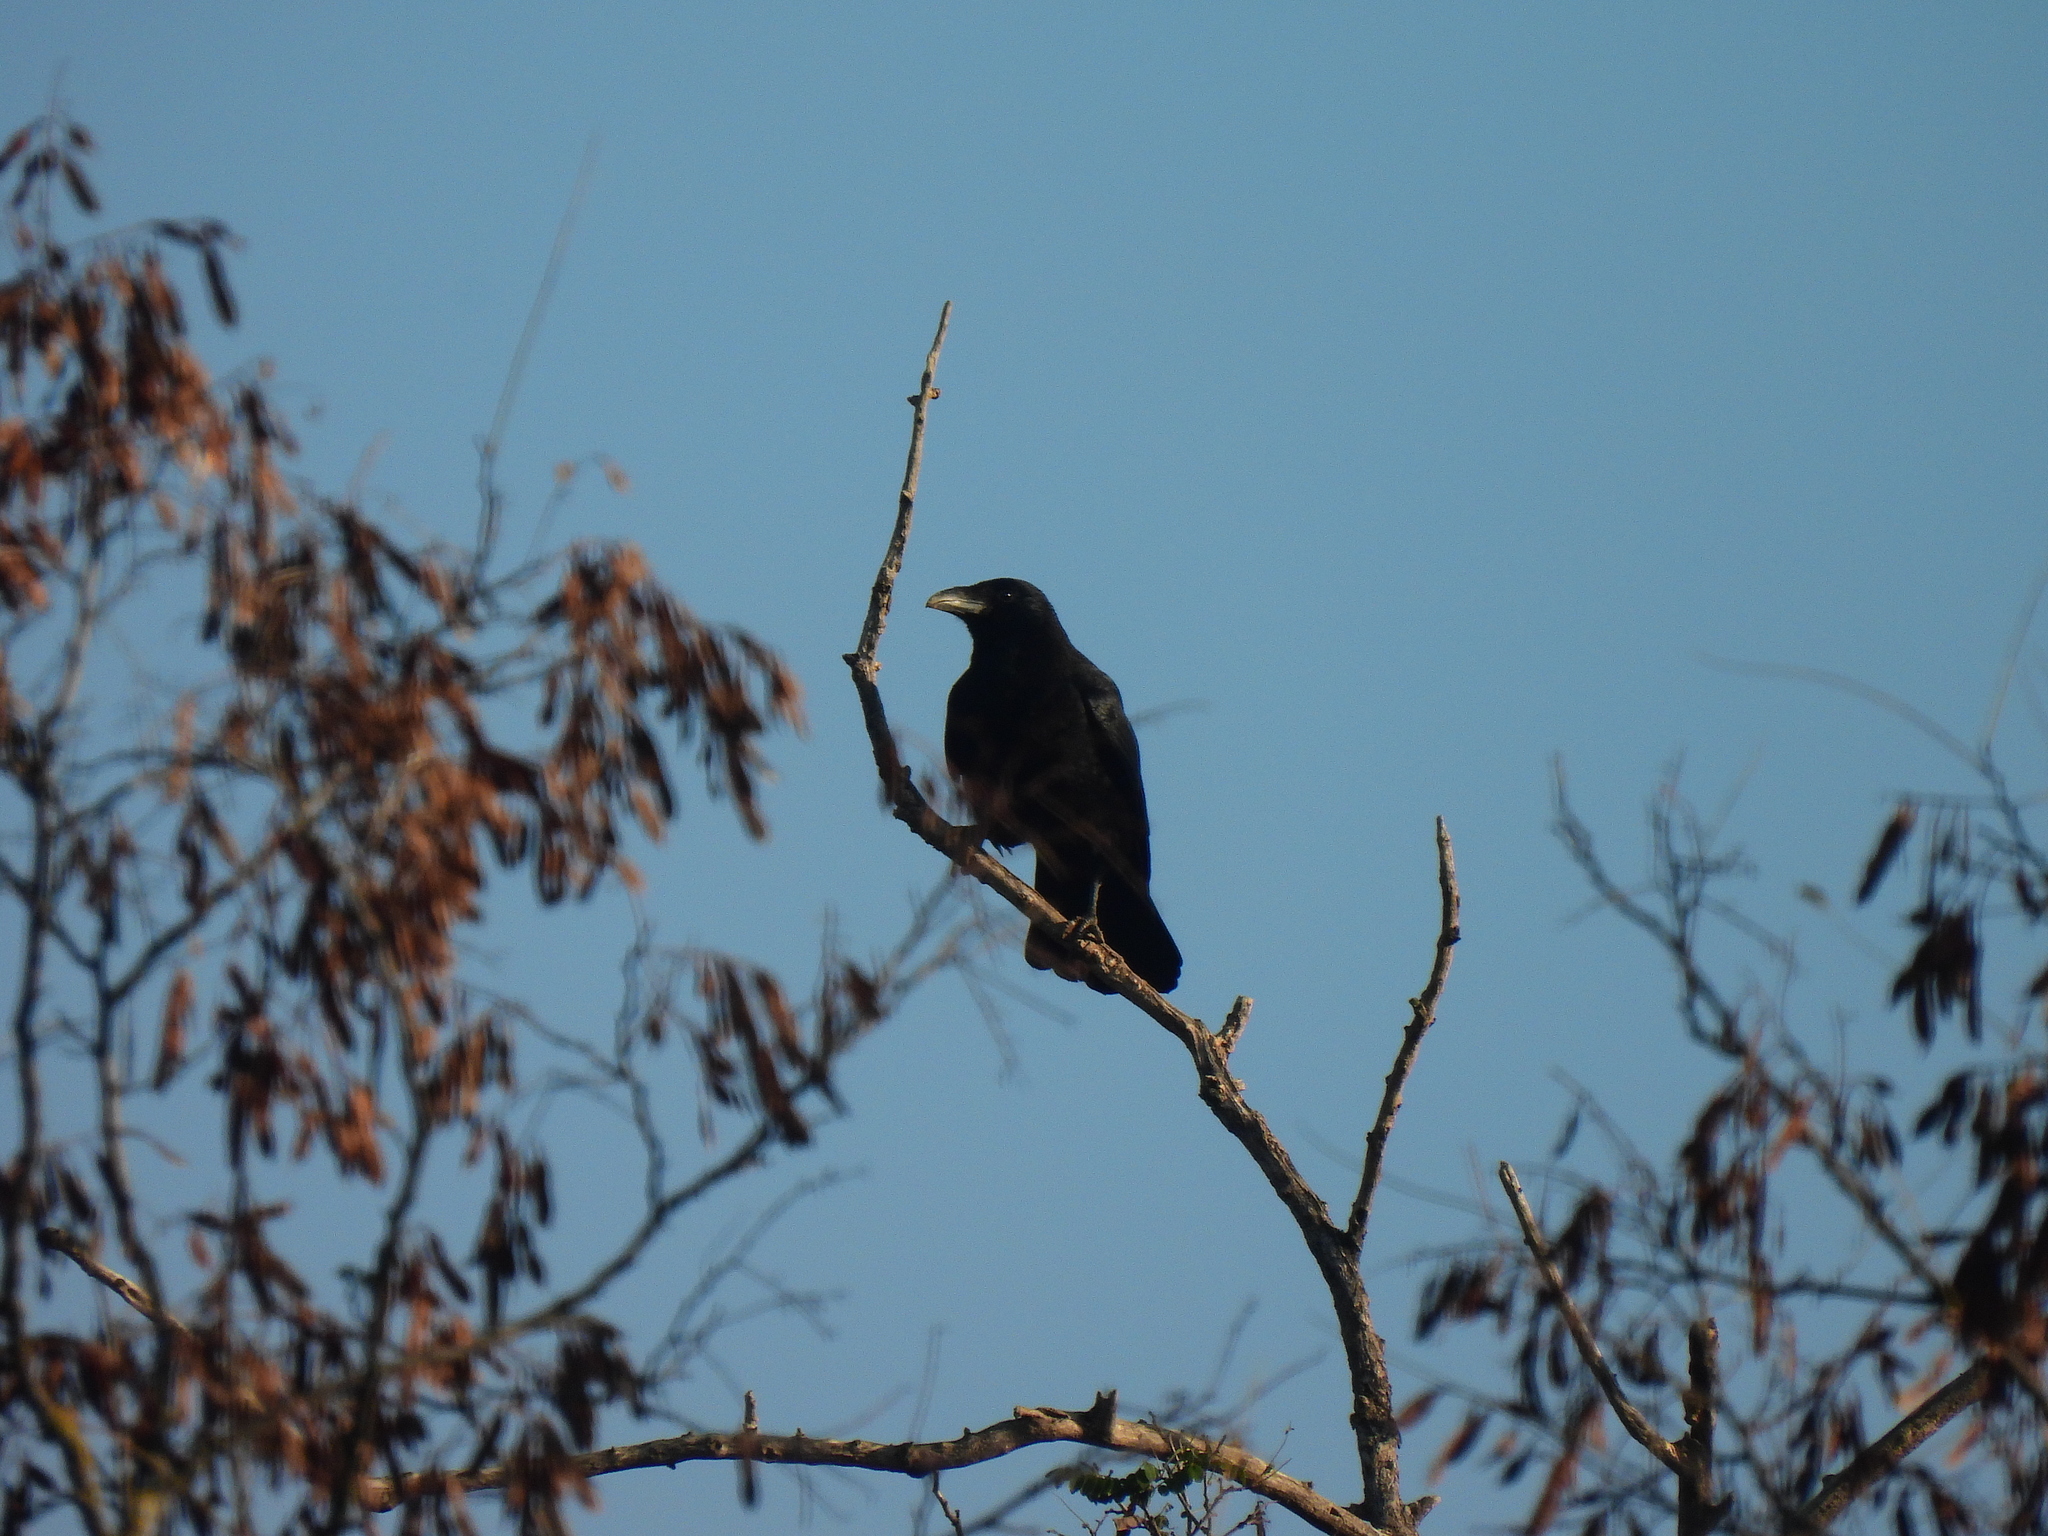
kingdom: Animalia
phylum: Chordata
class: Aves
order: Passeriformes
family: Corvidae
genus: Corvus
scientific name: Corvus corone
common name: Carrion crow
